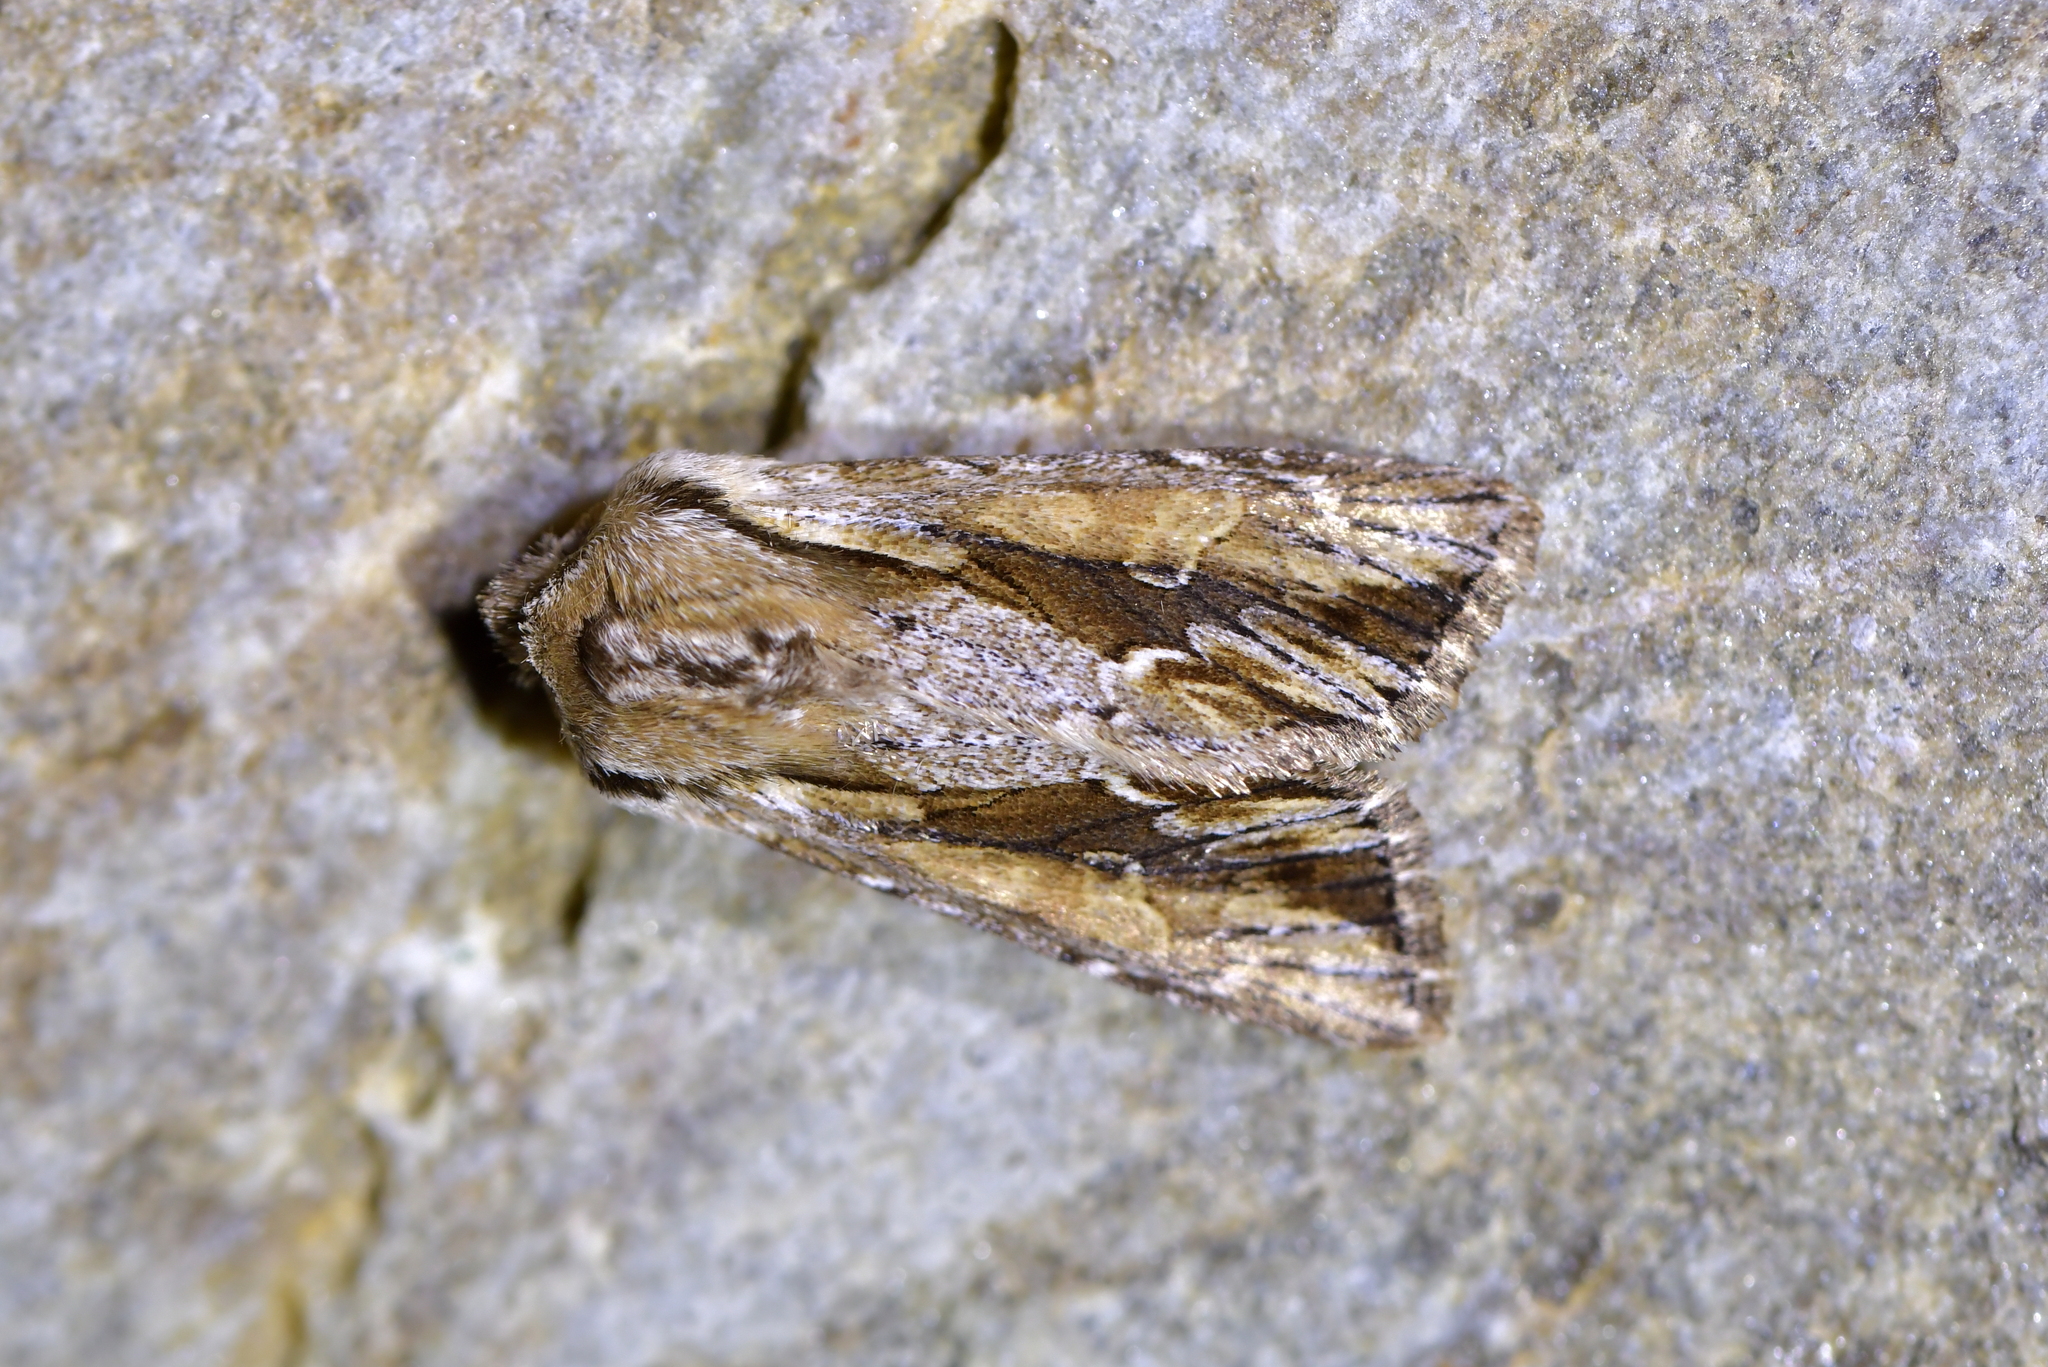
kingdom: Animalia
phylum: Arthropoda
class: Insecta
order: Lepidoptera
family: Noctuidae
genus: Ichneutica
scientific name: Ichneutica
